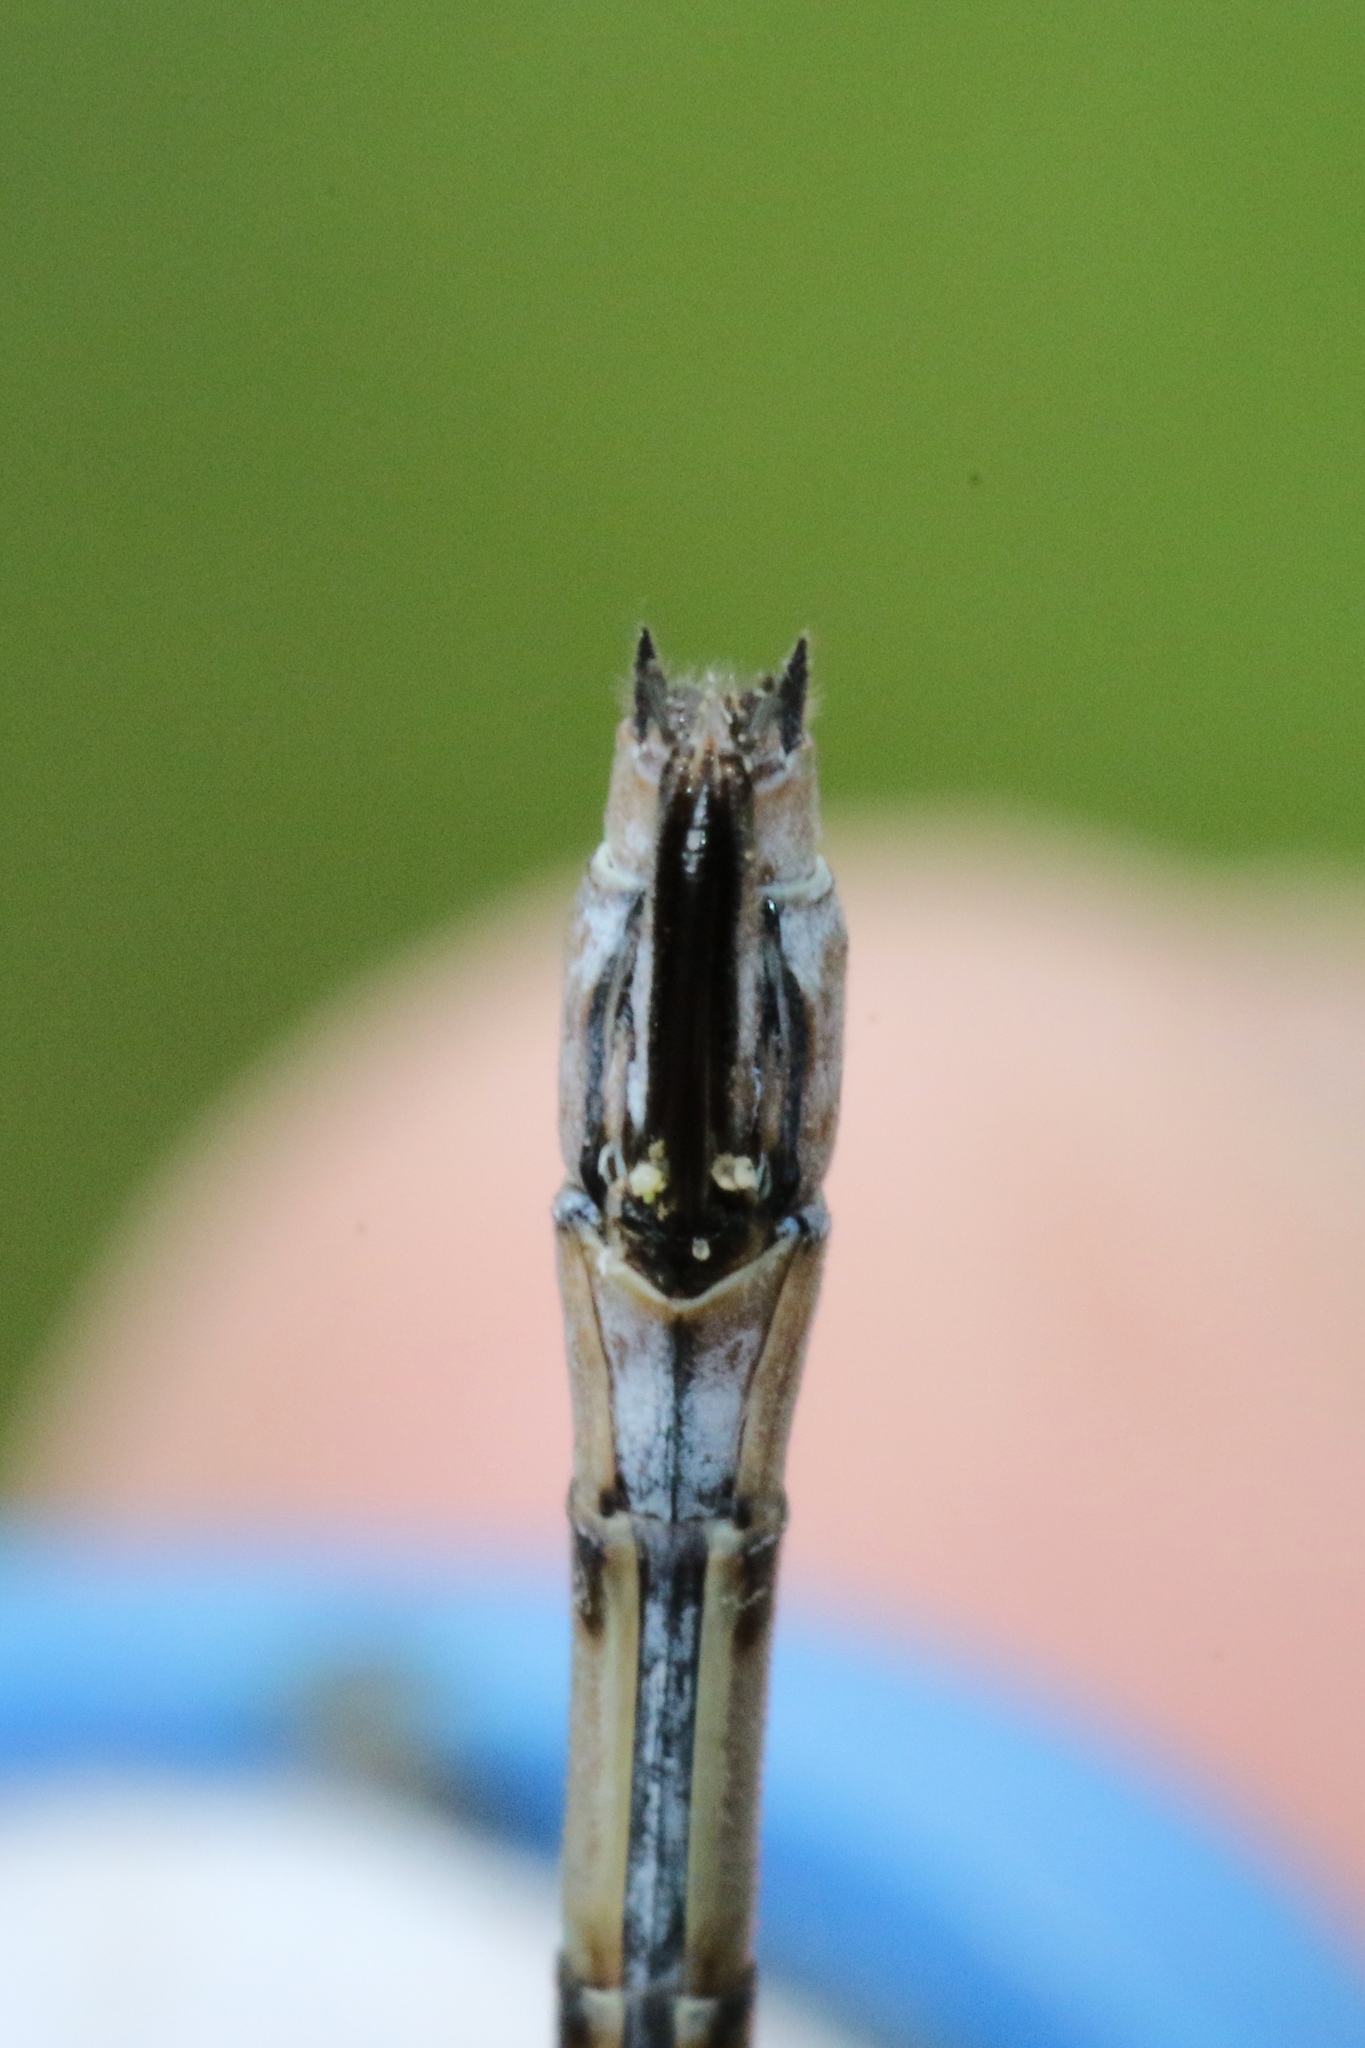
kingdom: Animalia
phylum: Arthropoda
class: Insecta
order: Odonata
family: Lestidae
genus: Lestes
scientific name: Lestes forcipatus
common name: Sweetflag spreadwing
